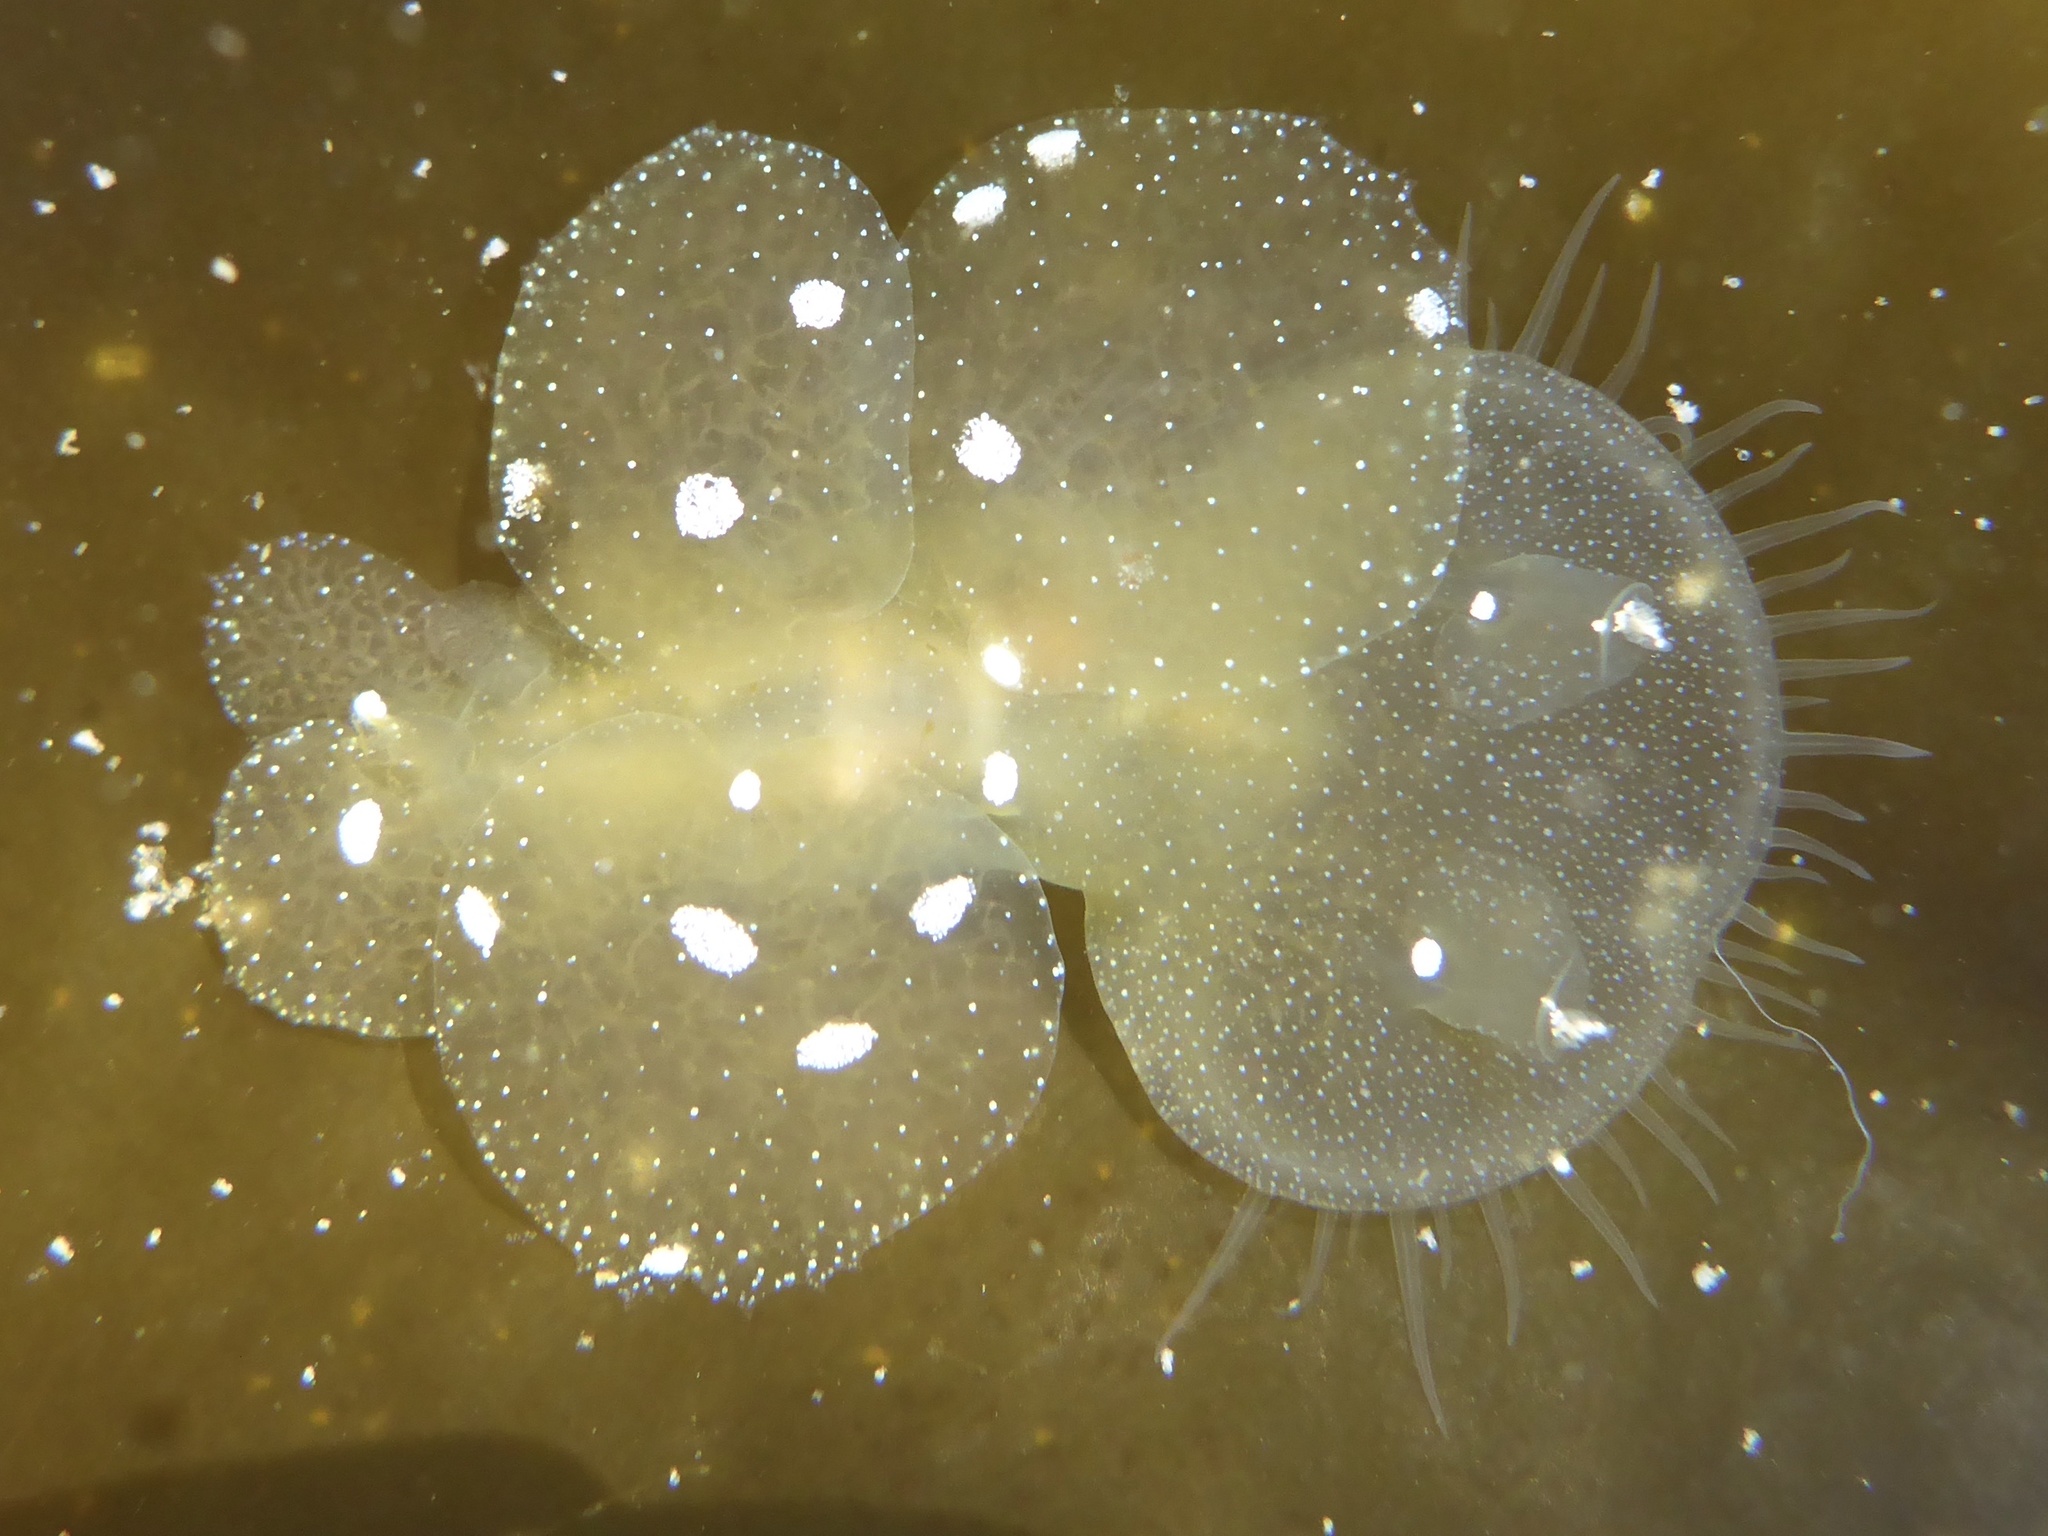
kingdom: Animalia
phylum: Mollusca
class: Gastropoda
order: Nudibranchia
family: Tethydidae
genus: Melibe
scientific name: Melibe leonina
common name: Lion nudibranch
